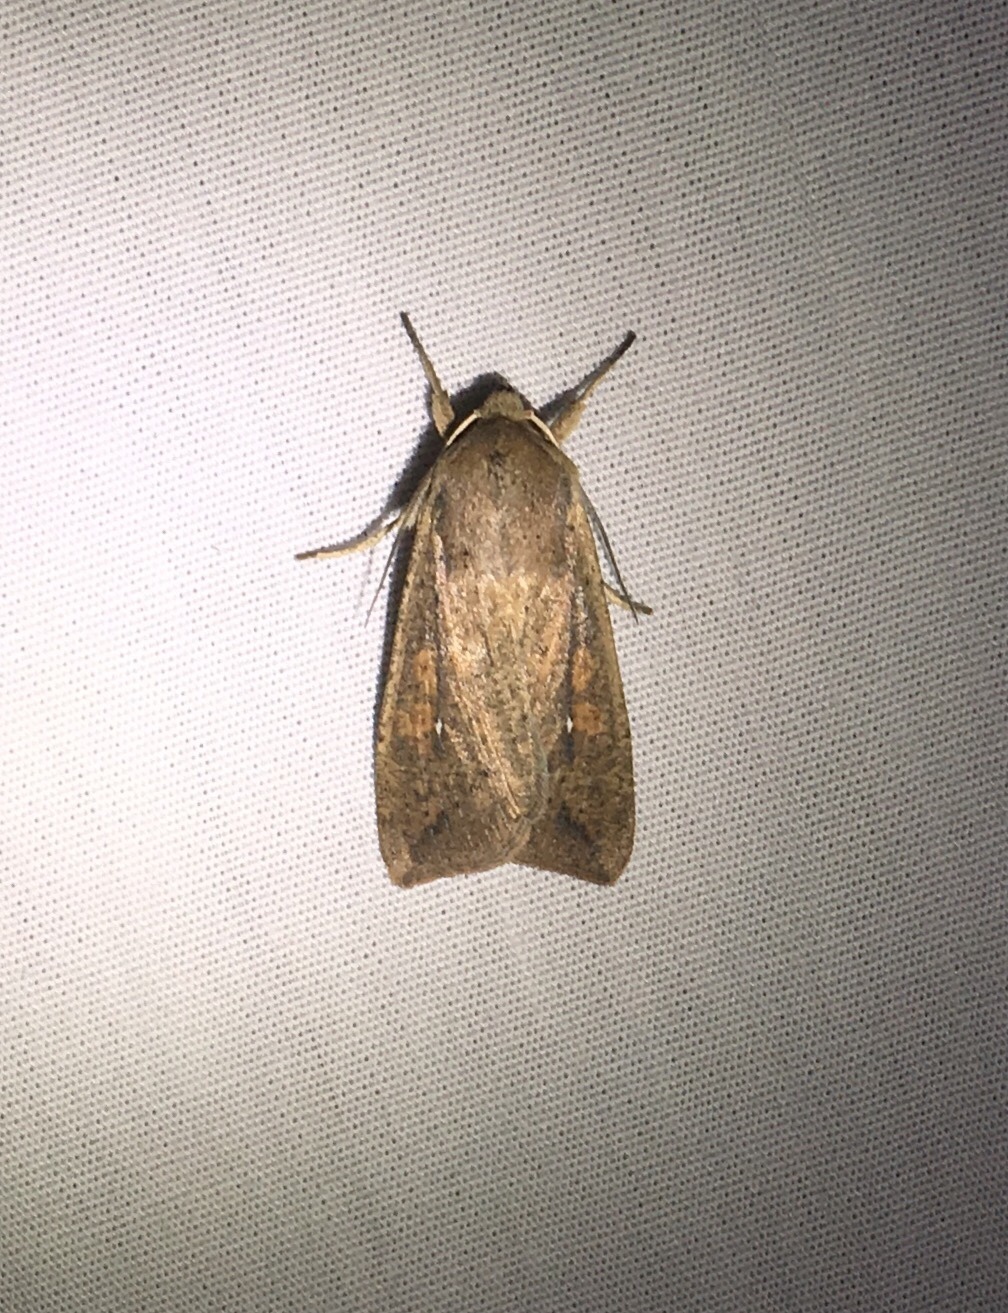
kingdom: Animalia
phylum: Arthropoda
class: Insecta
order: Lepidoptera
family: Noctuidae
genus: Mythimna
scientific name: Mythimna unipuncta
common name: White-speck
